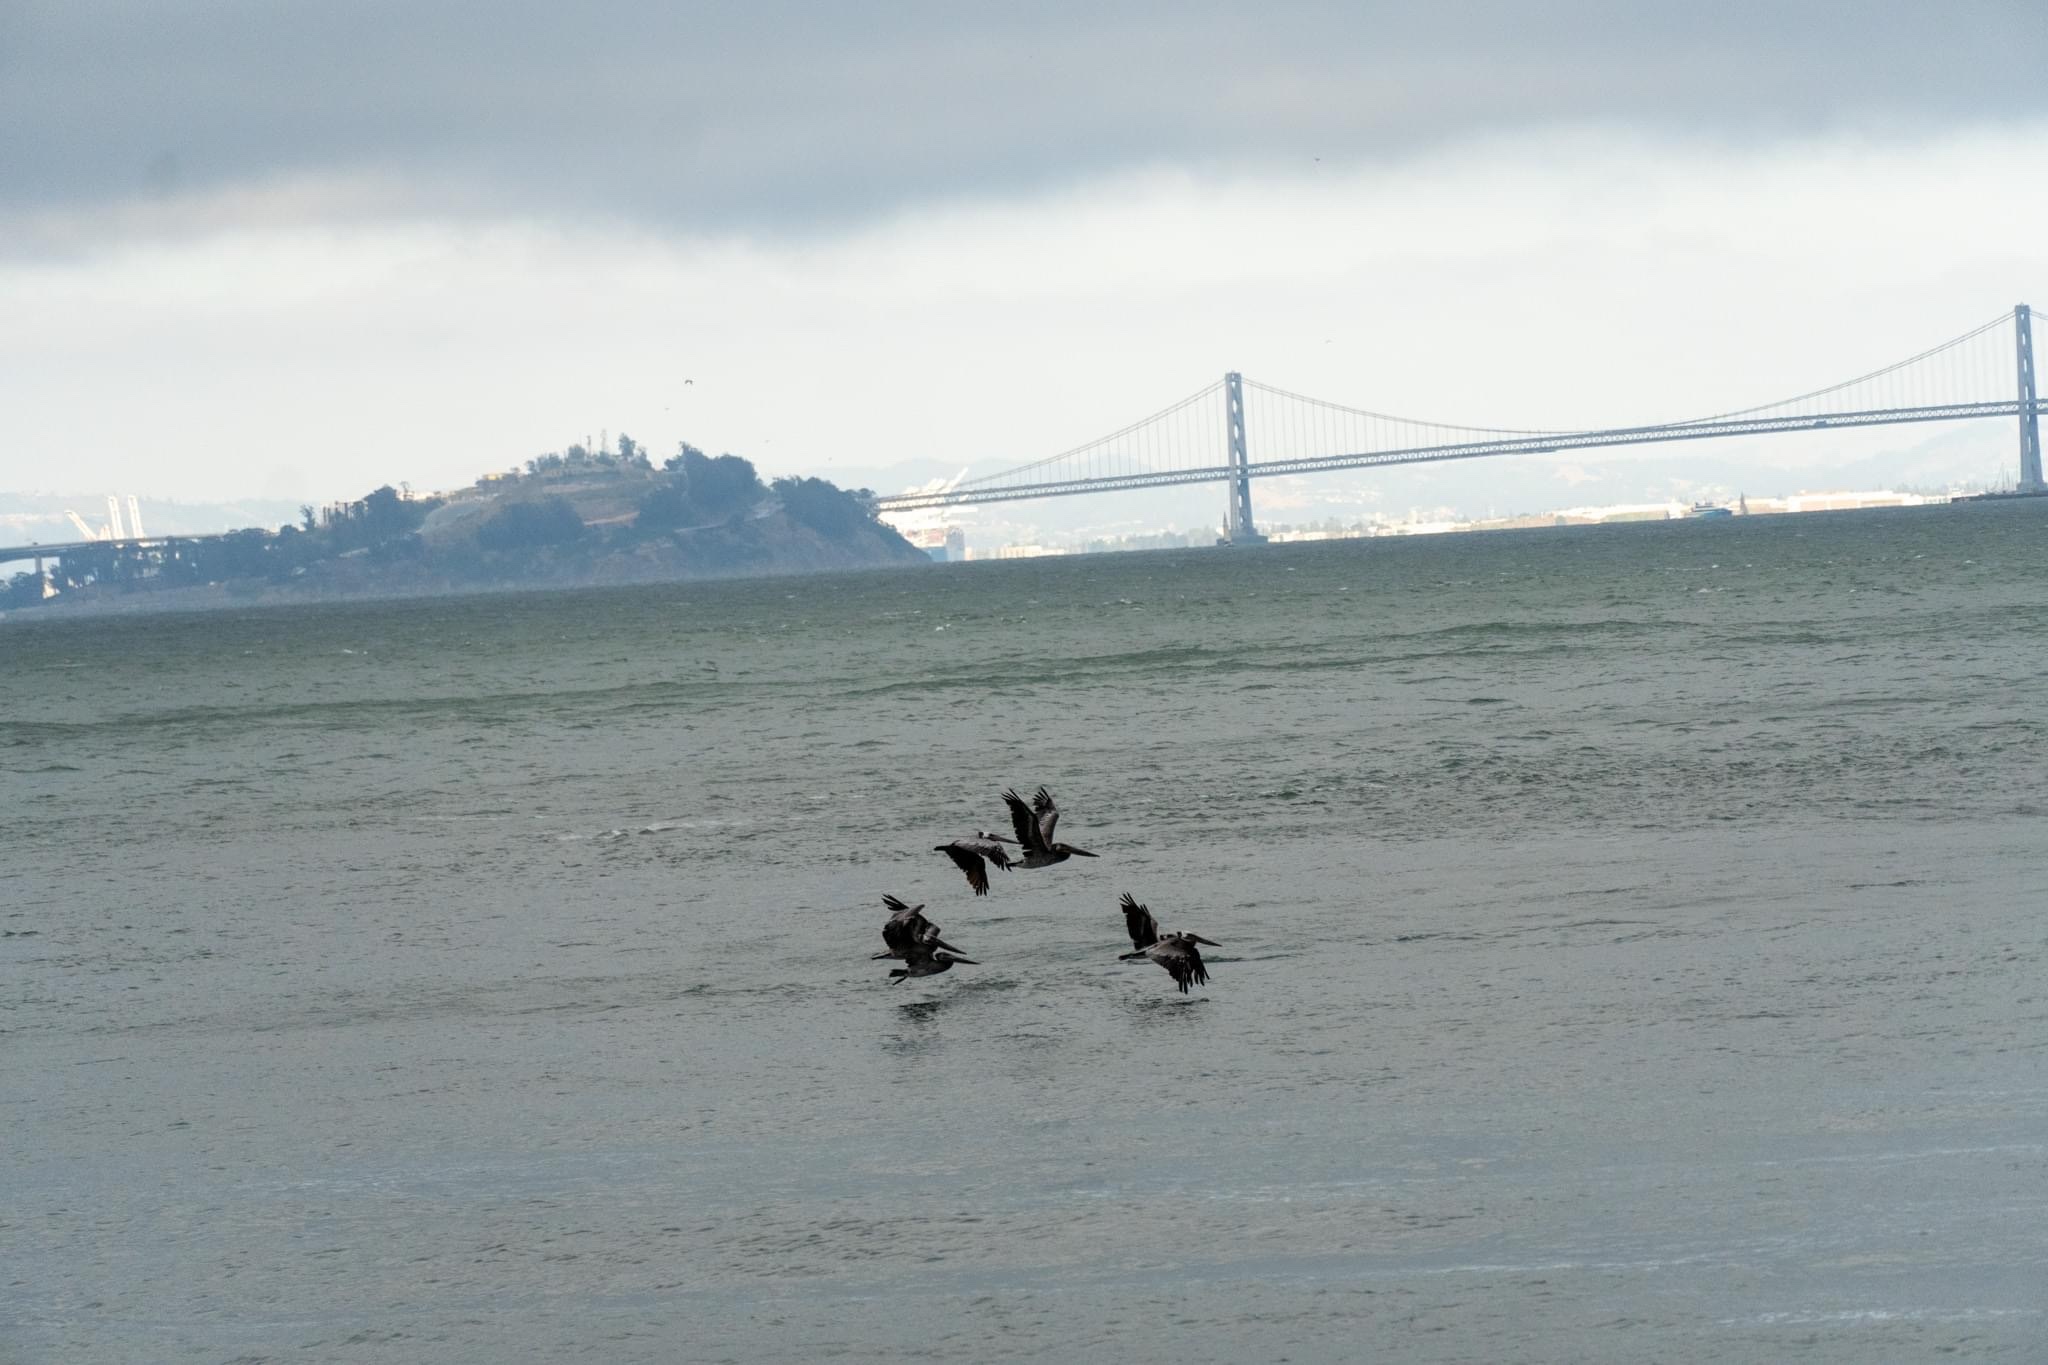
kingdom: Animalia
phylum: Chordata
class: Aves
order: Pelecaniformes
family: Pelecanidae
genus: Pelecanus
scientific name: Pelecanus occidentalis
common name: Brown pelican
